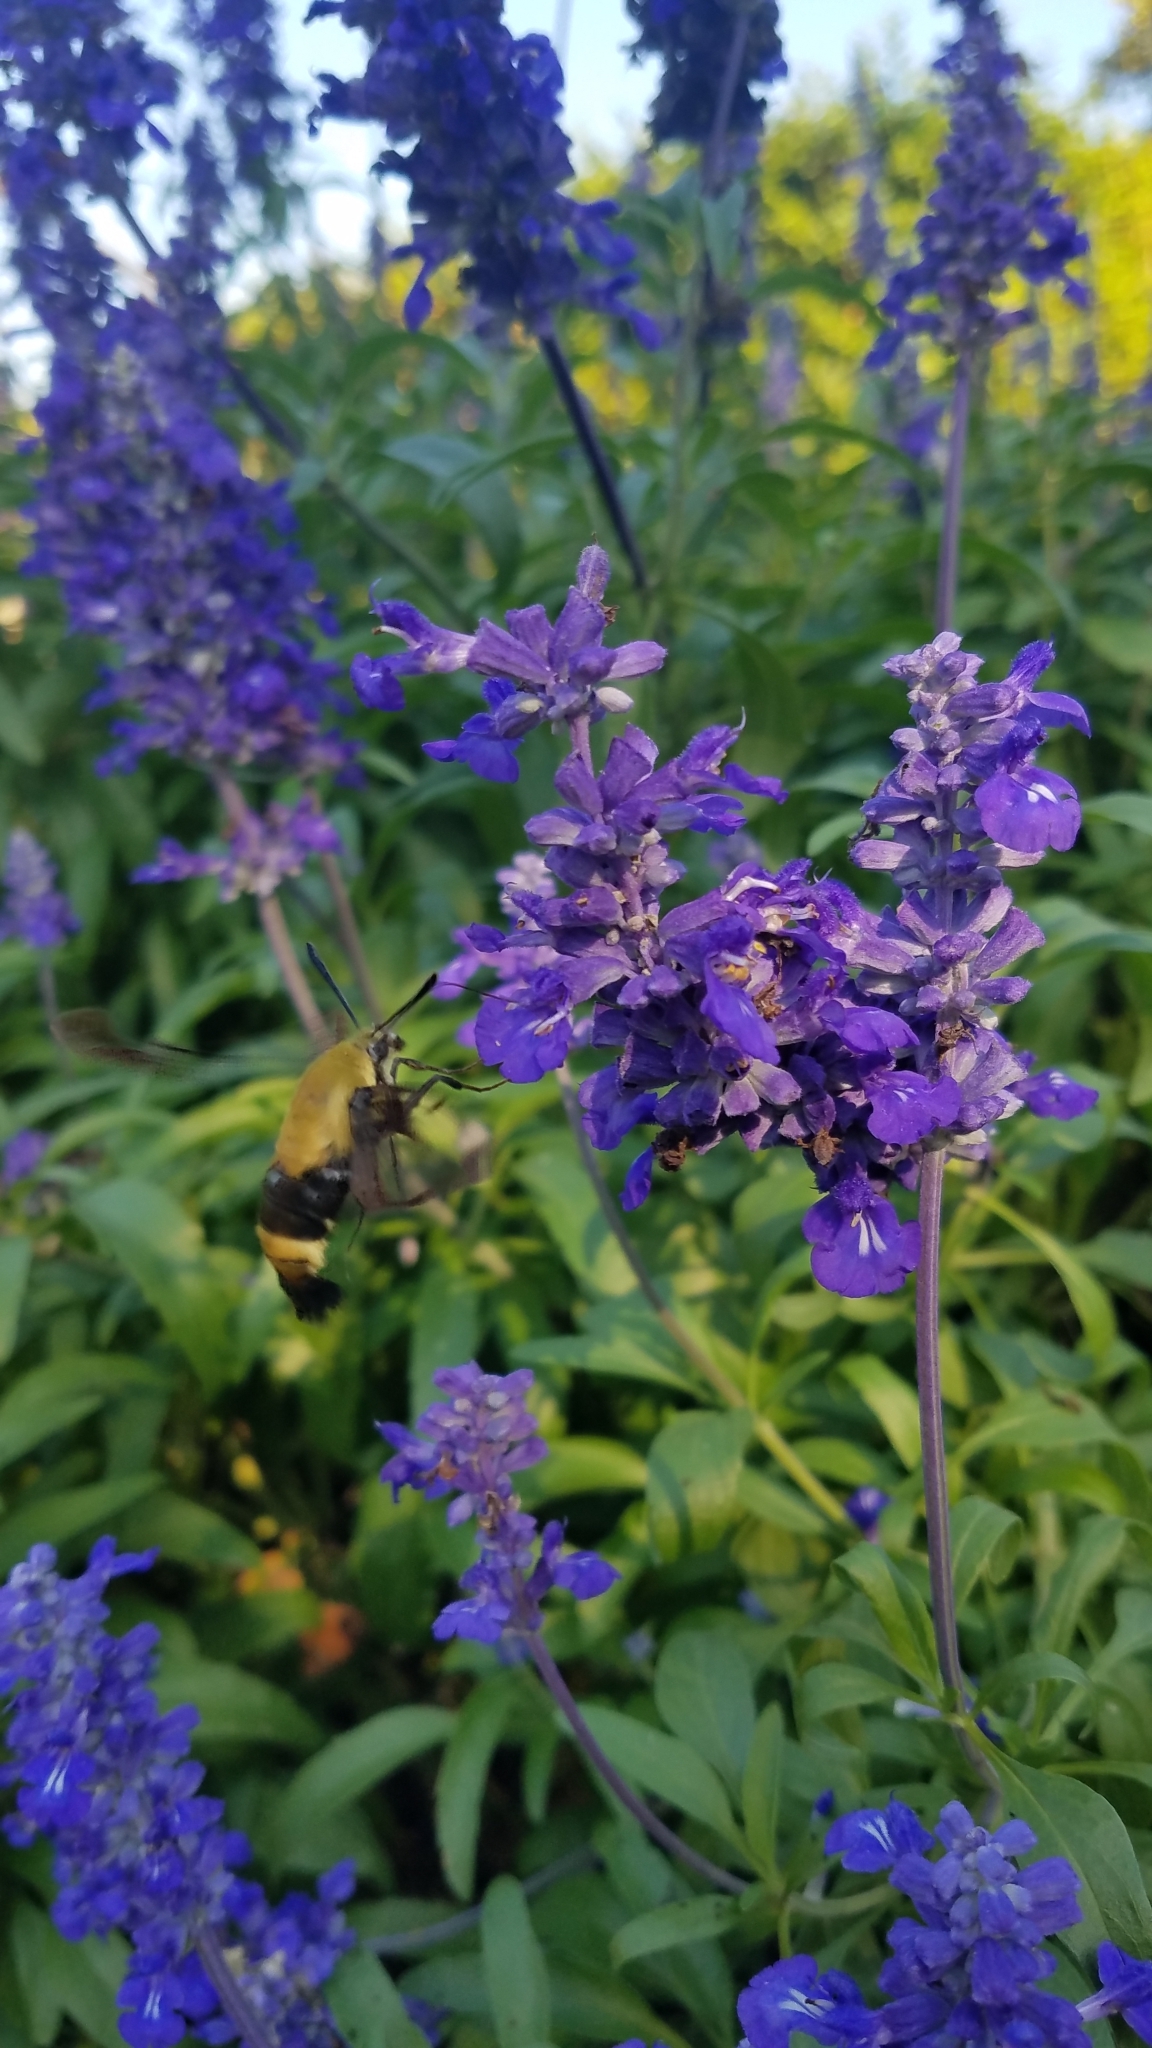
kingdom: Animalia
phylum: Arthropoda
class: Insecta
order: Lepidoptera
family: Sphingidae
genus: Hemaris
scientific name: Hemaris diffinis
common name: Bumblebee moth
